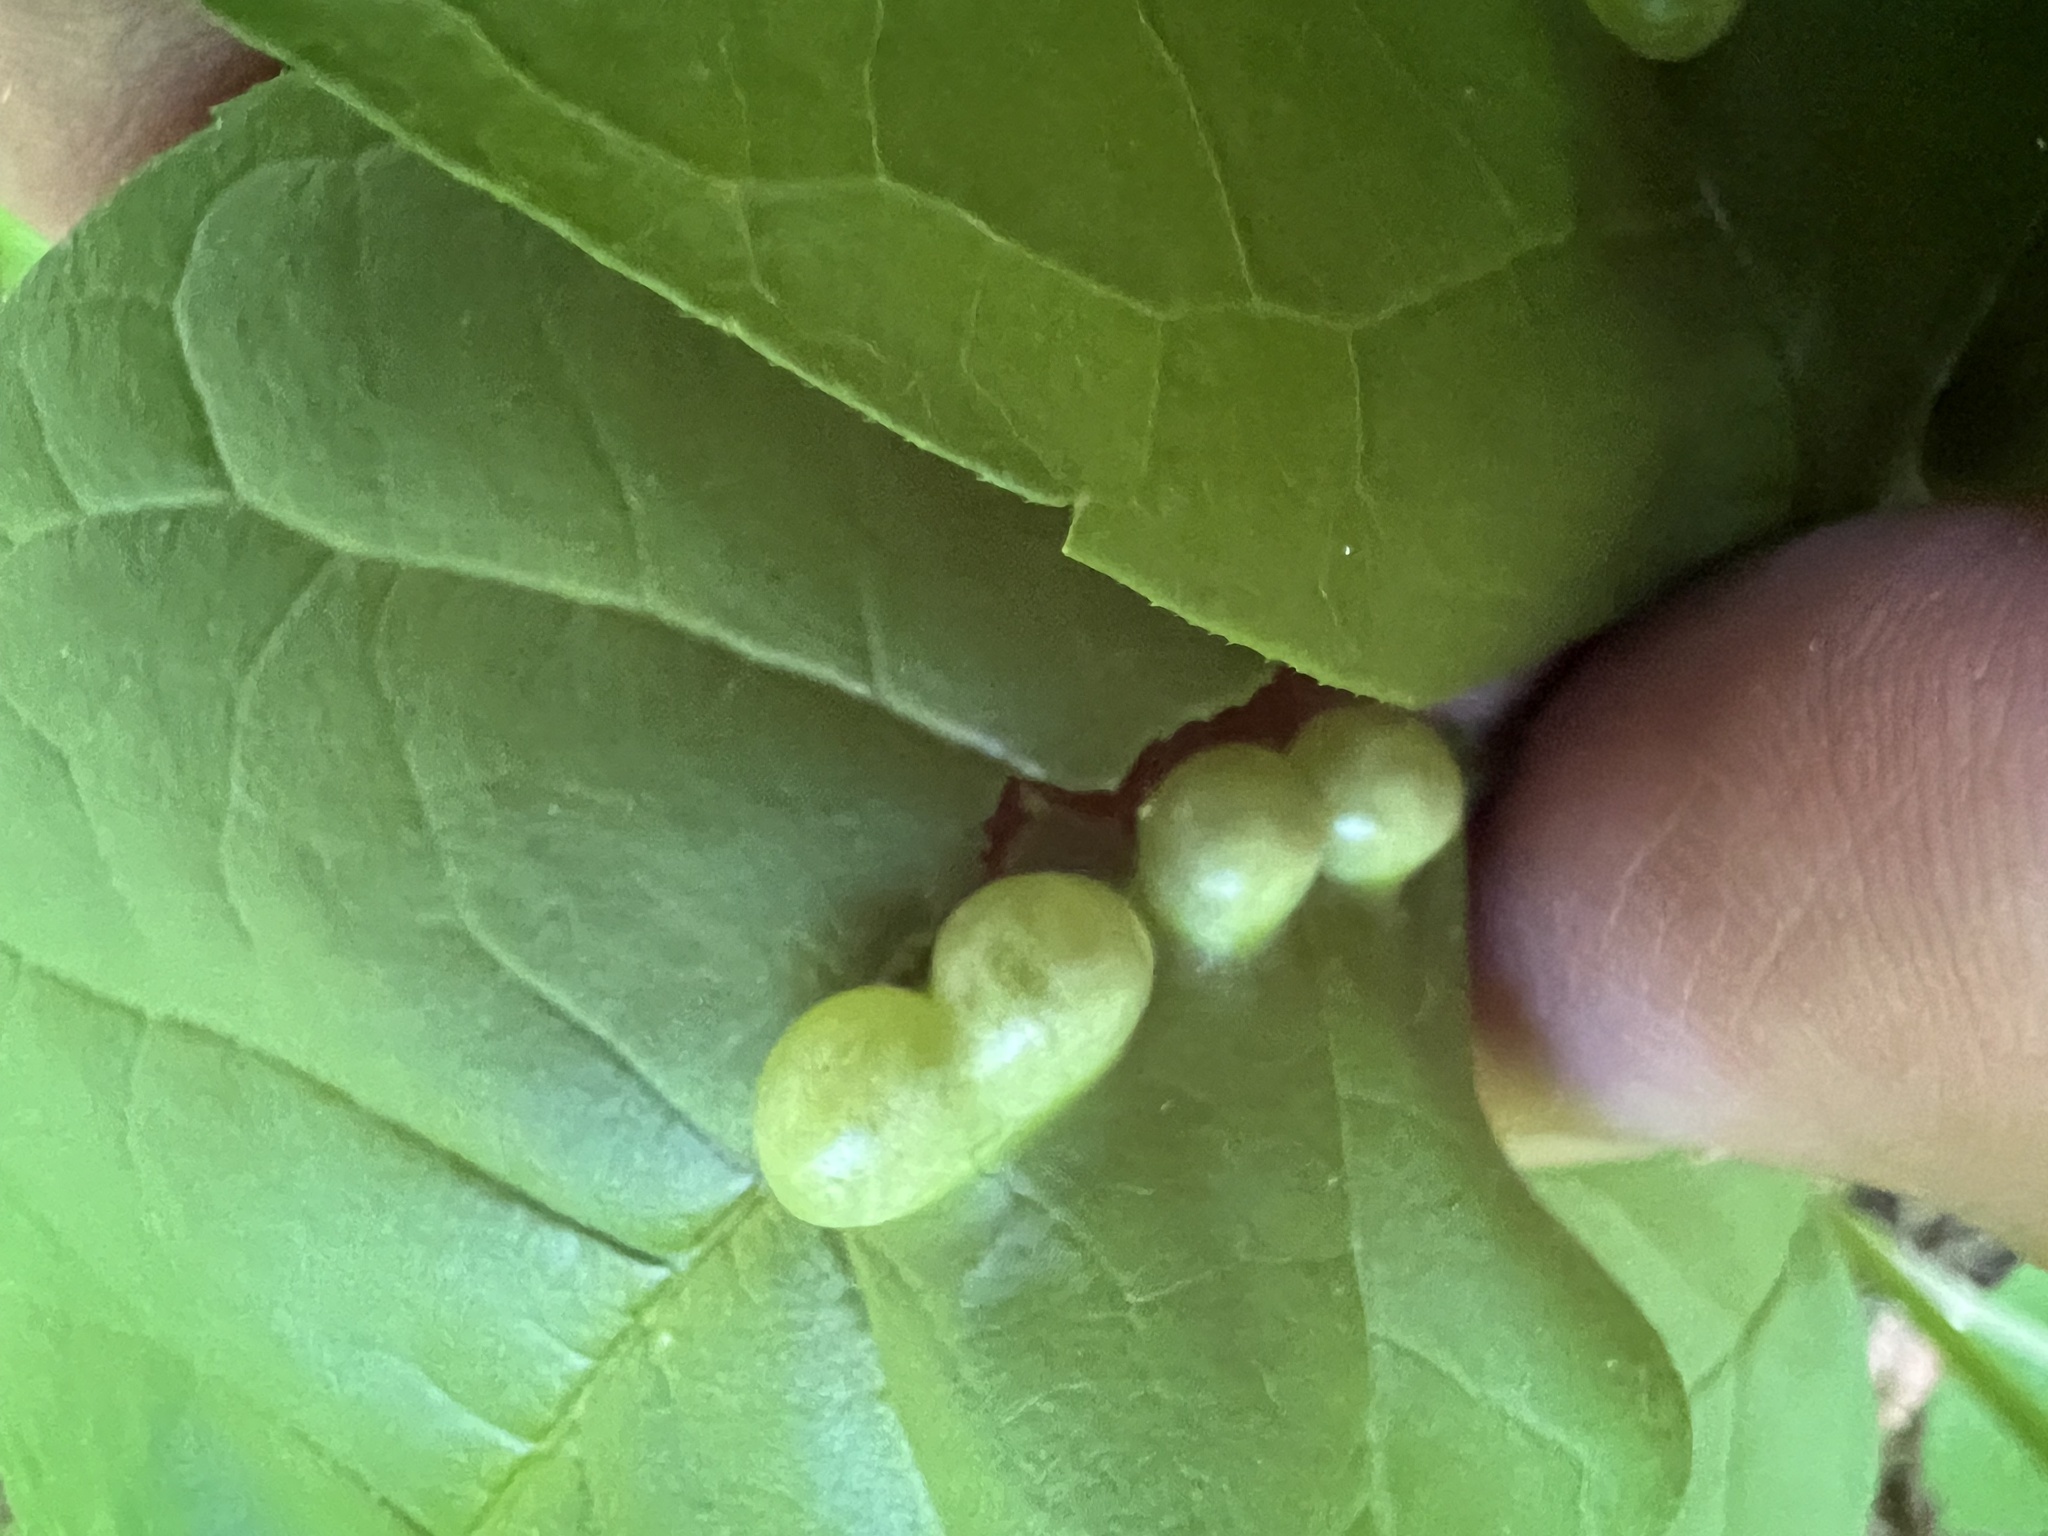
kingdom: Animalia
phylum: Arthropoda
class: Insecta
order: Diptera
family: Cecidomyiidae
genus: Dasineura
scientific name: Dasineura pellex
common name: Ash bullet gall midge
